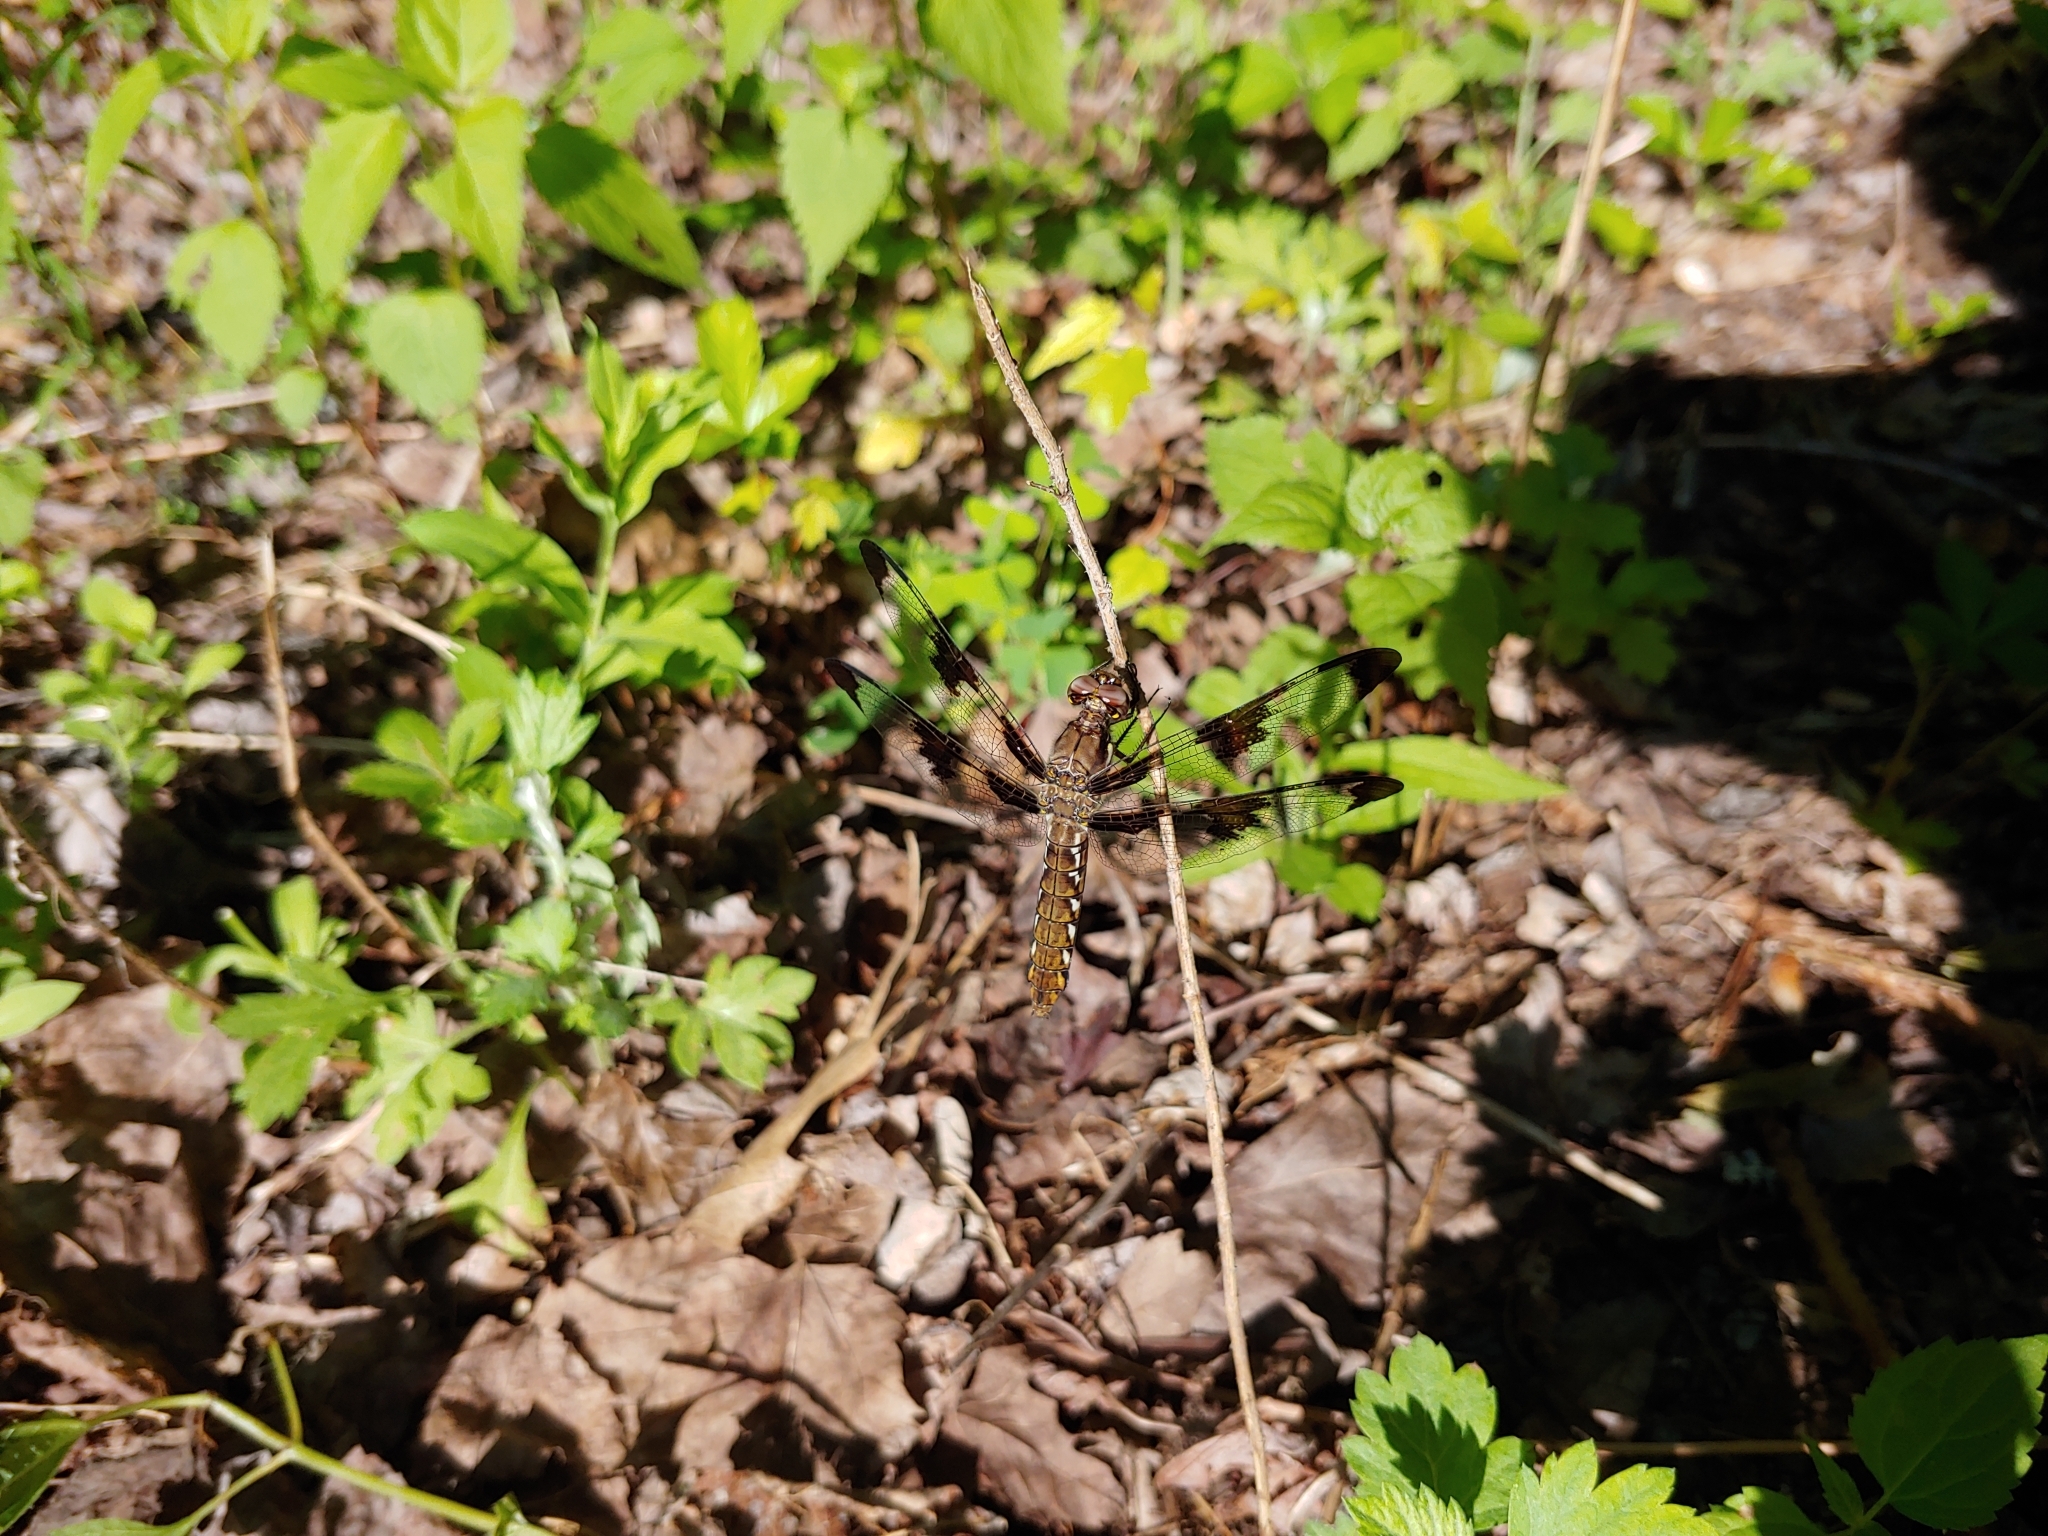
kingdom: Animalia
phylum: Arthropoda
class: Insecta
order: Odonata
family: Libellulidae
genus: Plathemis
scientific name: Plathemis lydia
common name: Common whitetail
